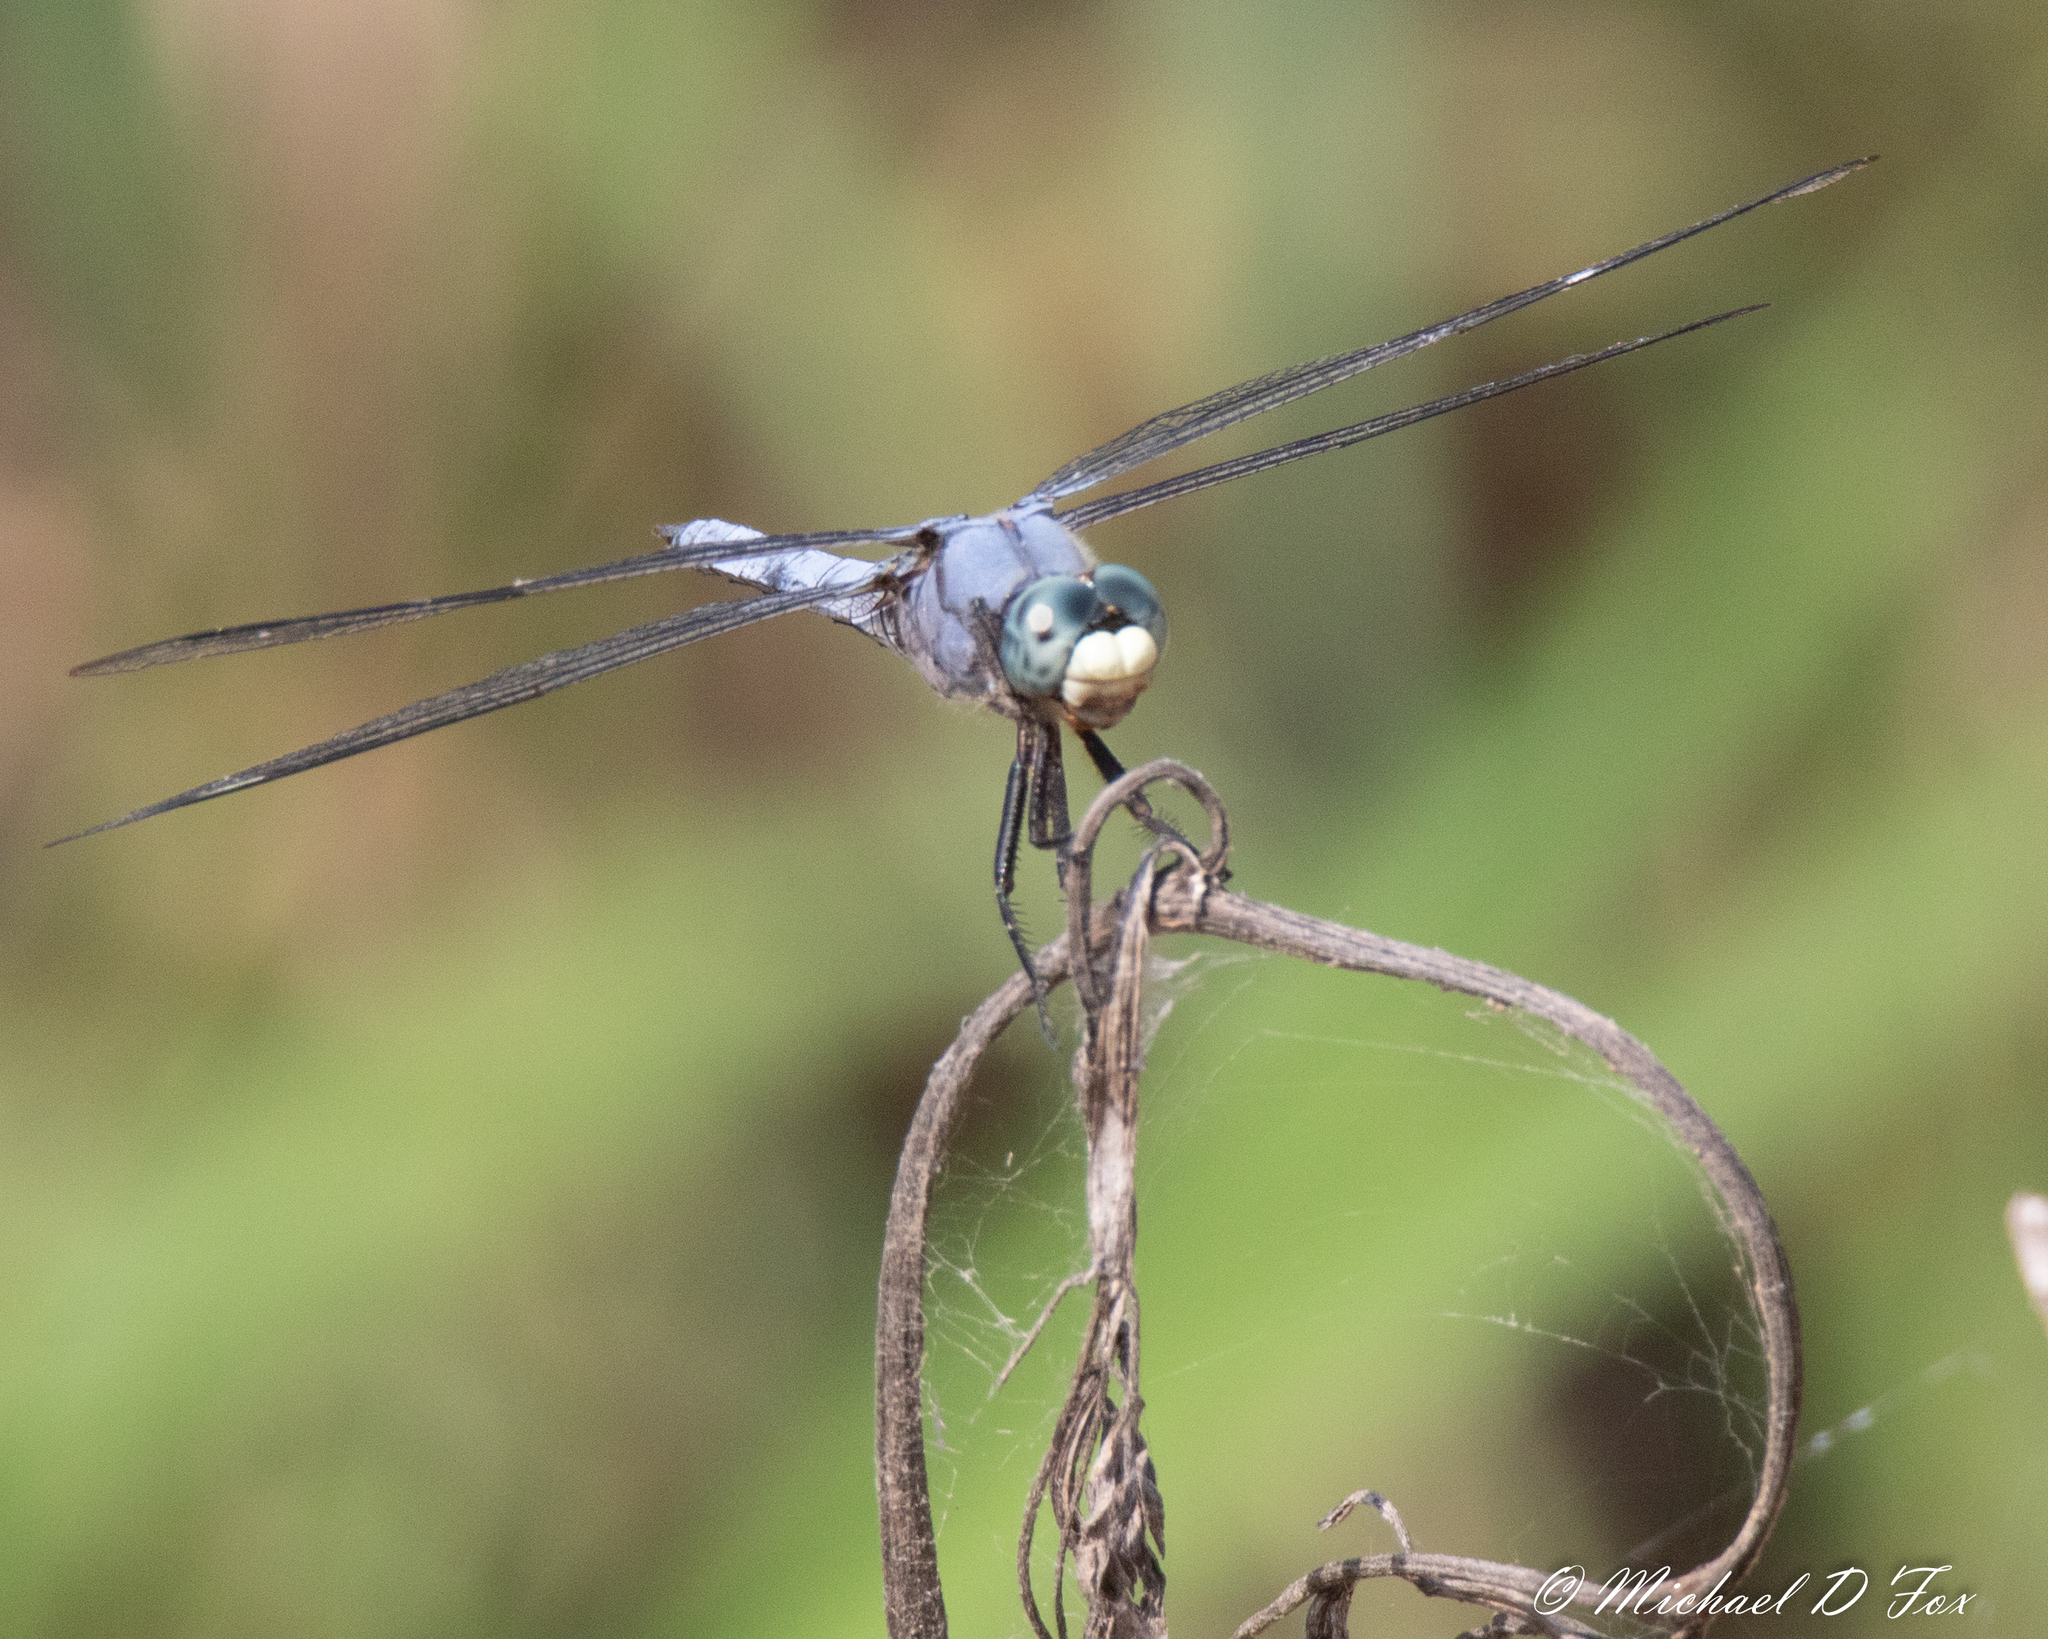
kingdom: Animalia
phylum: Arthropoda
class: Insecta
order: Odonata
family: Libellulidae
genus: Libellula
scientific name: Libellula comanche
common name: Comanche skimmer
